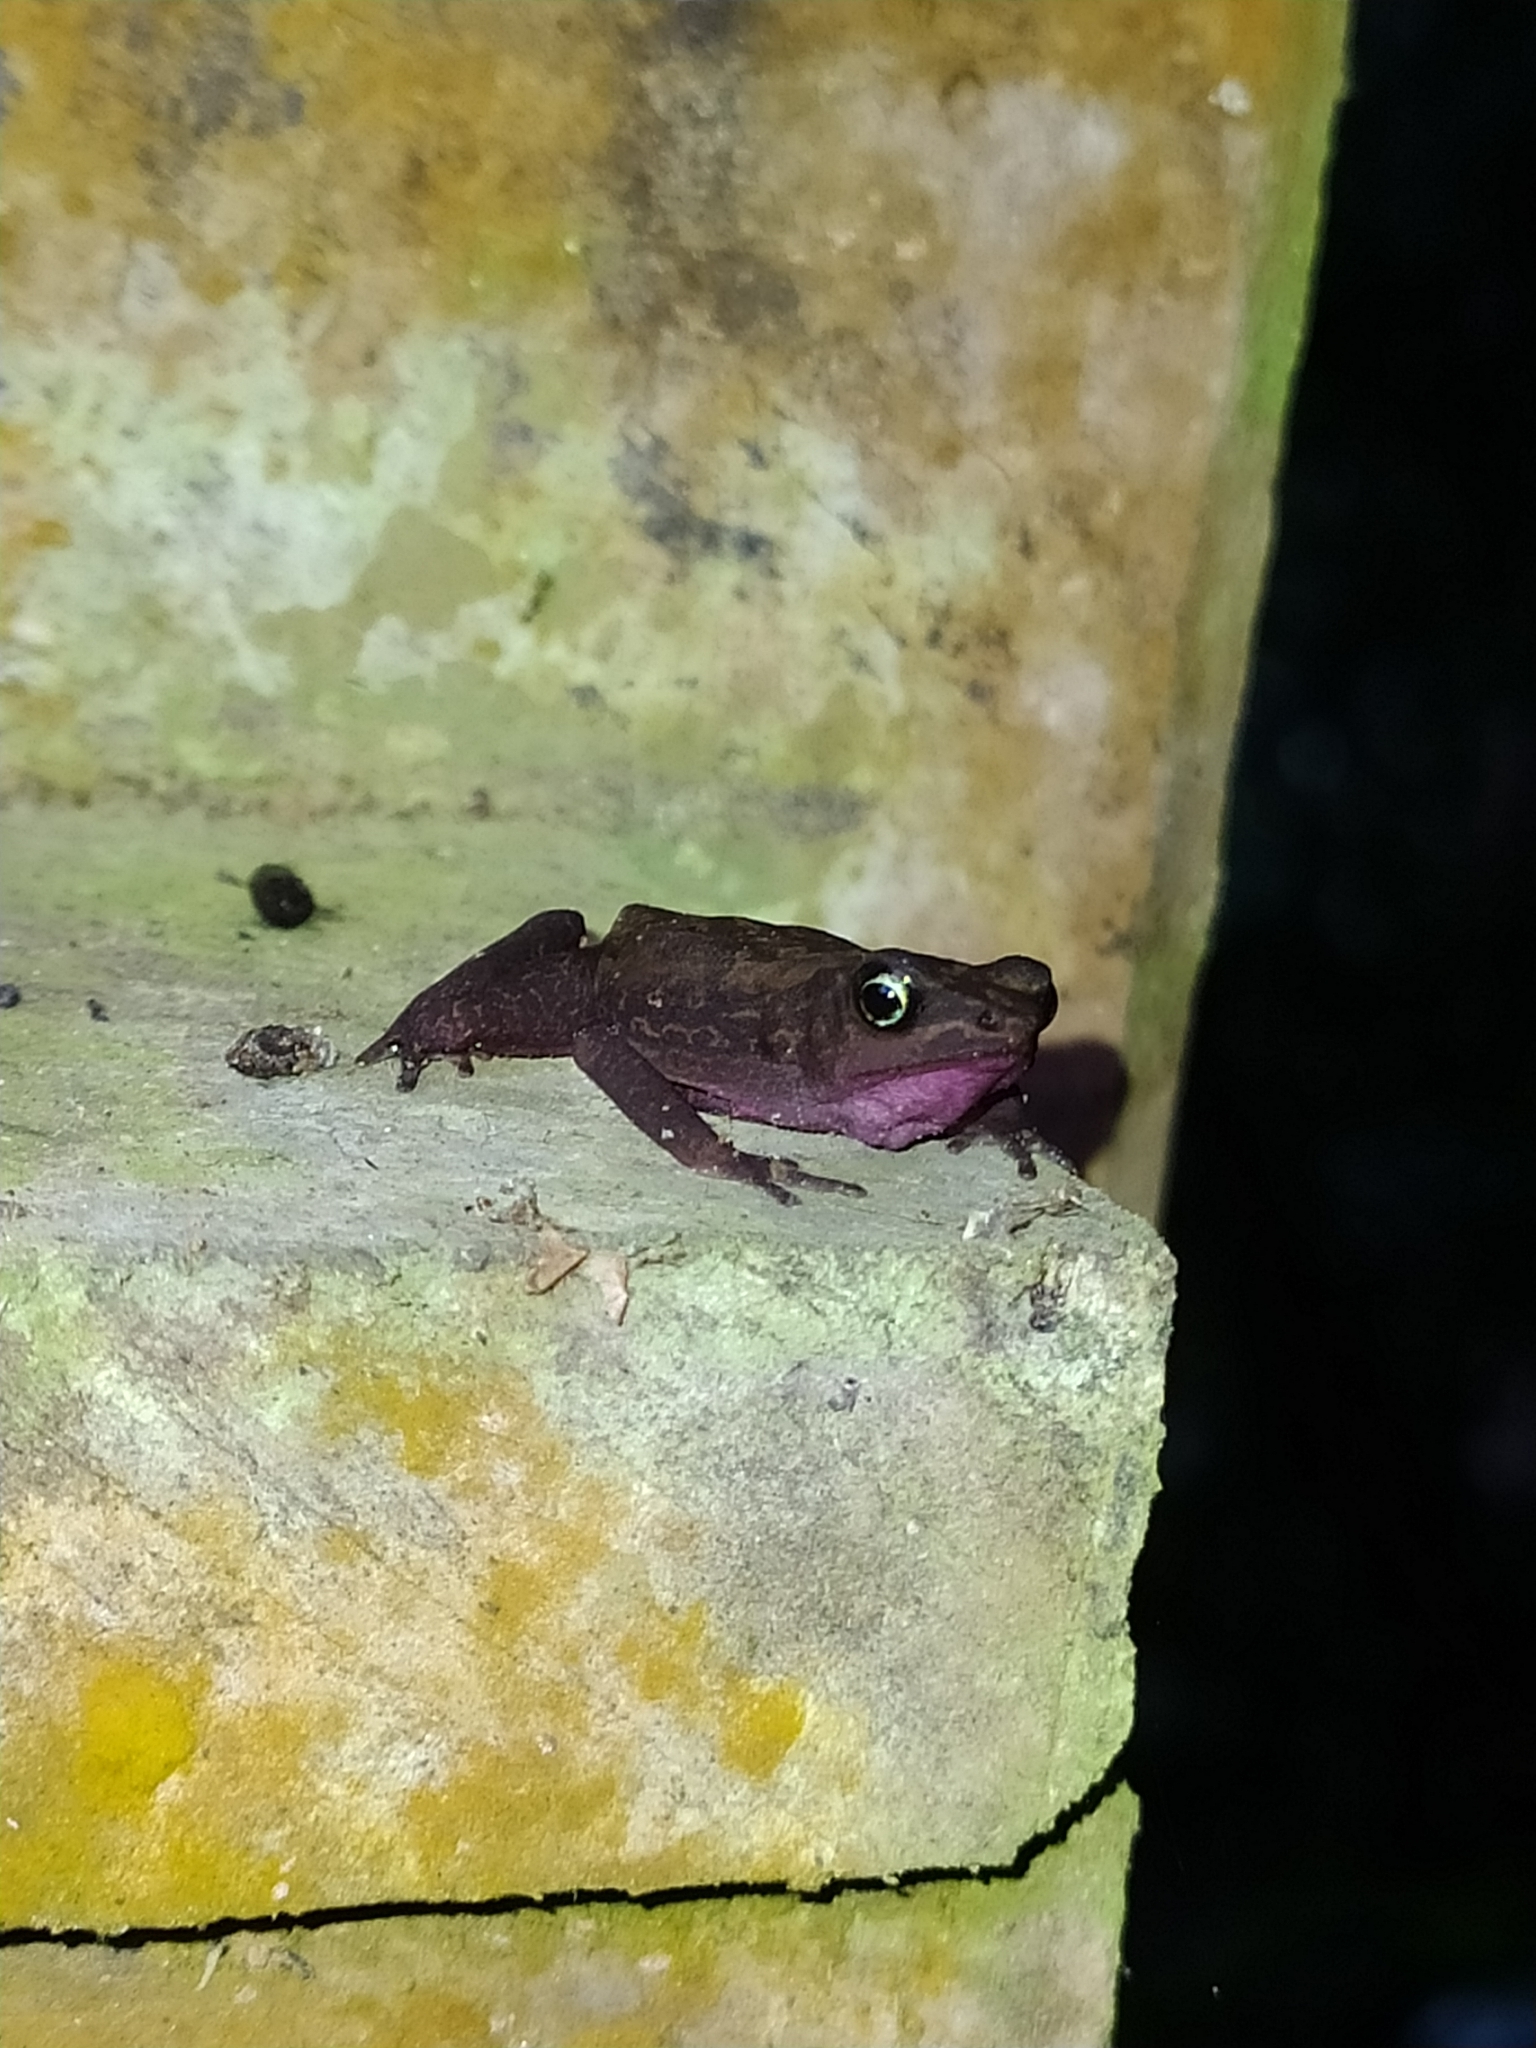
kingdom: Animalia
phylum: Chordata
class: Amphibia
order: Anura
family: Bufonidae
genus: Atelopus
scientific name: Atelopus flavescens
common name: Cayenne stubfoot toad
